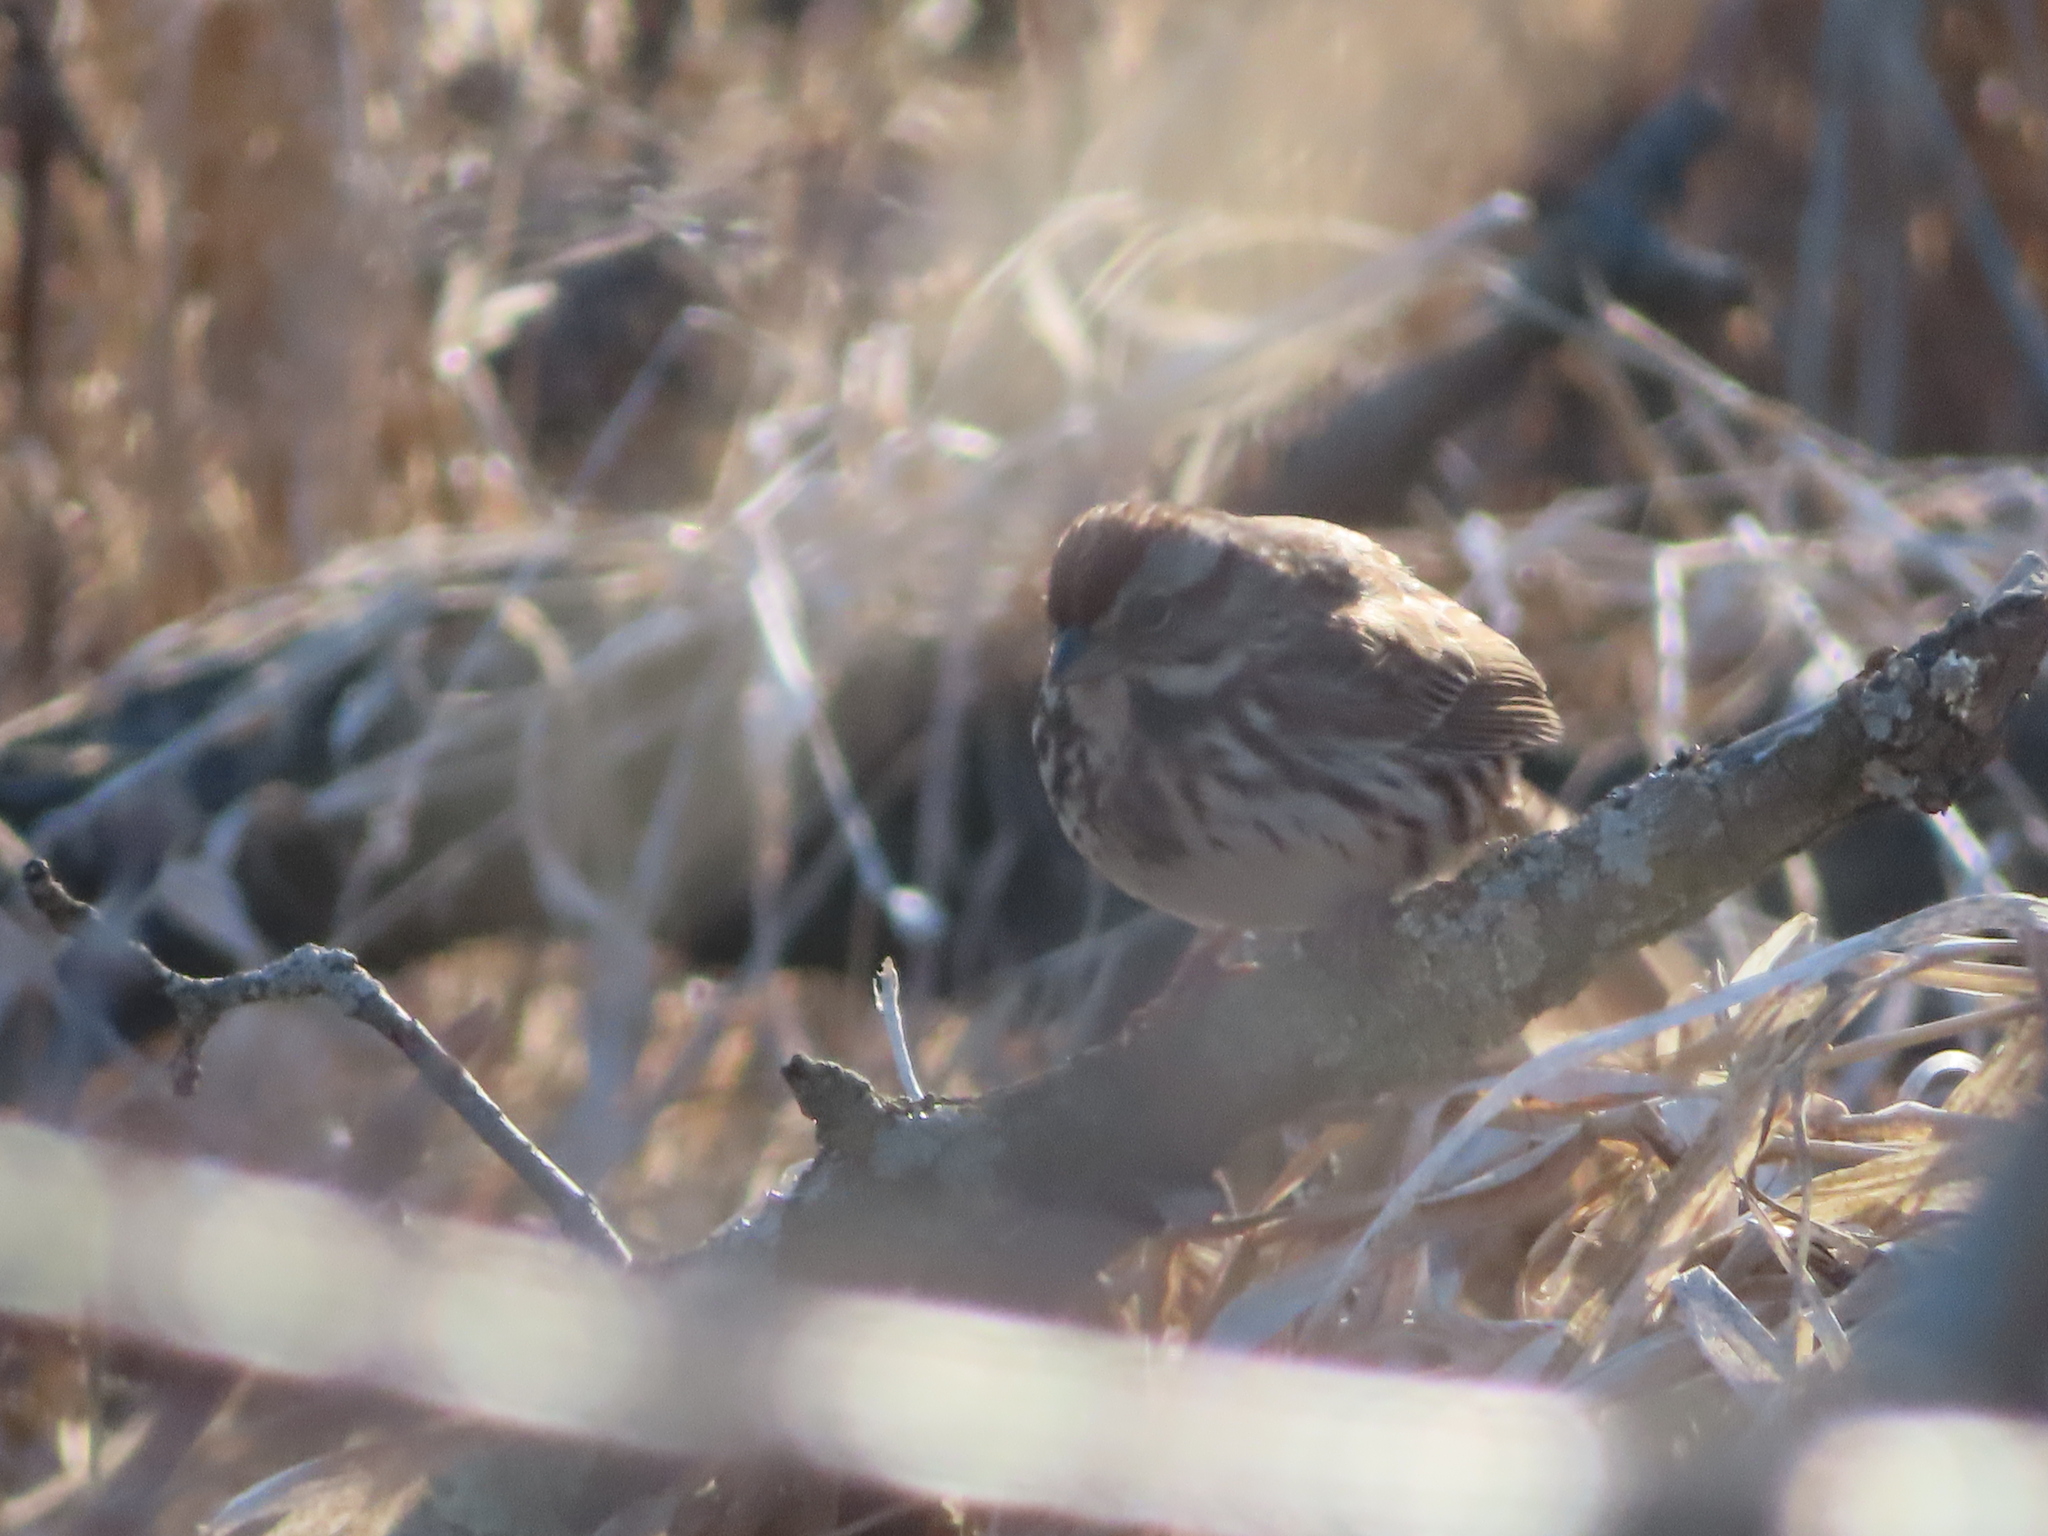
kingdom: Animalia
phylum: Chordata
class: Aves
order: Passeriformes
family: Passerellidae
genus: Melospiza
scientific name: Melospiza melodia
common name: Song sparrow
